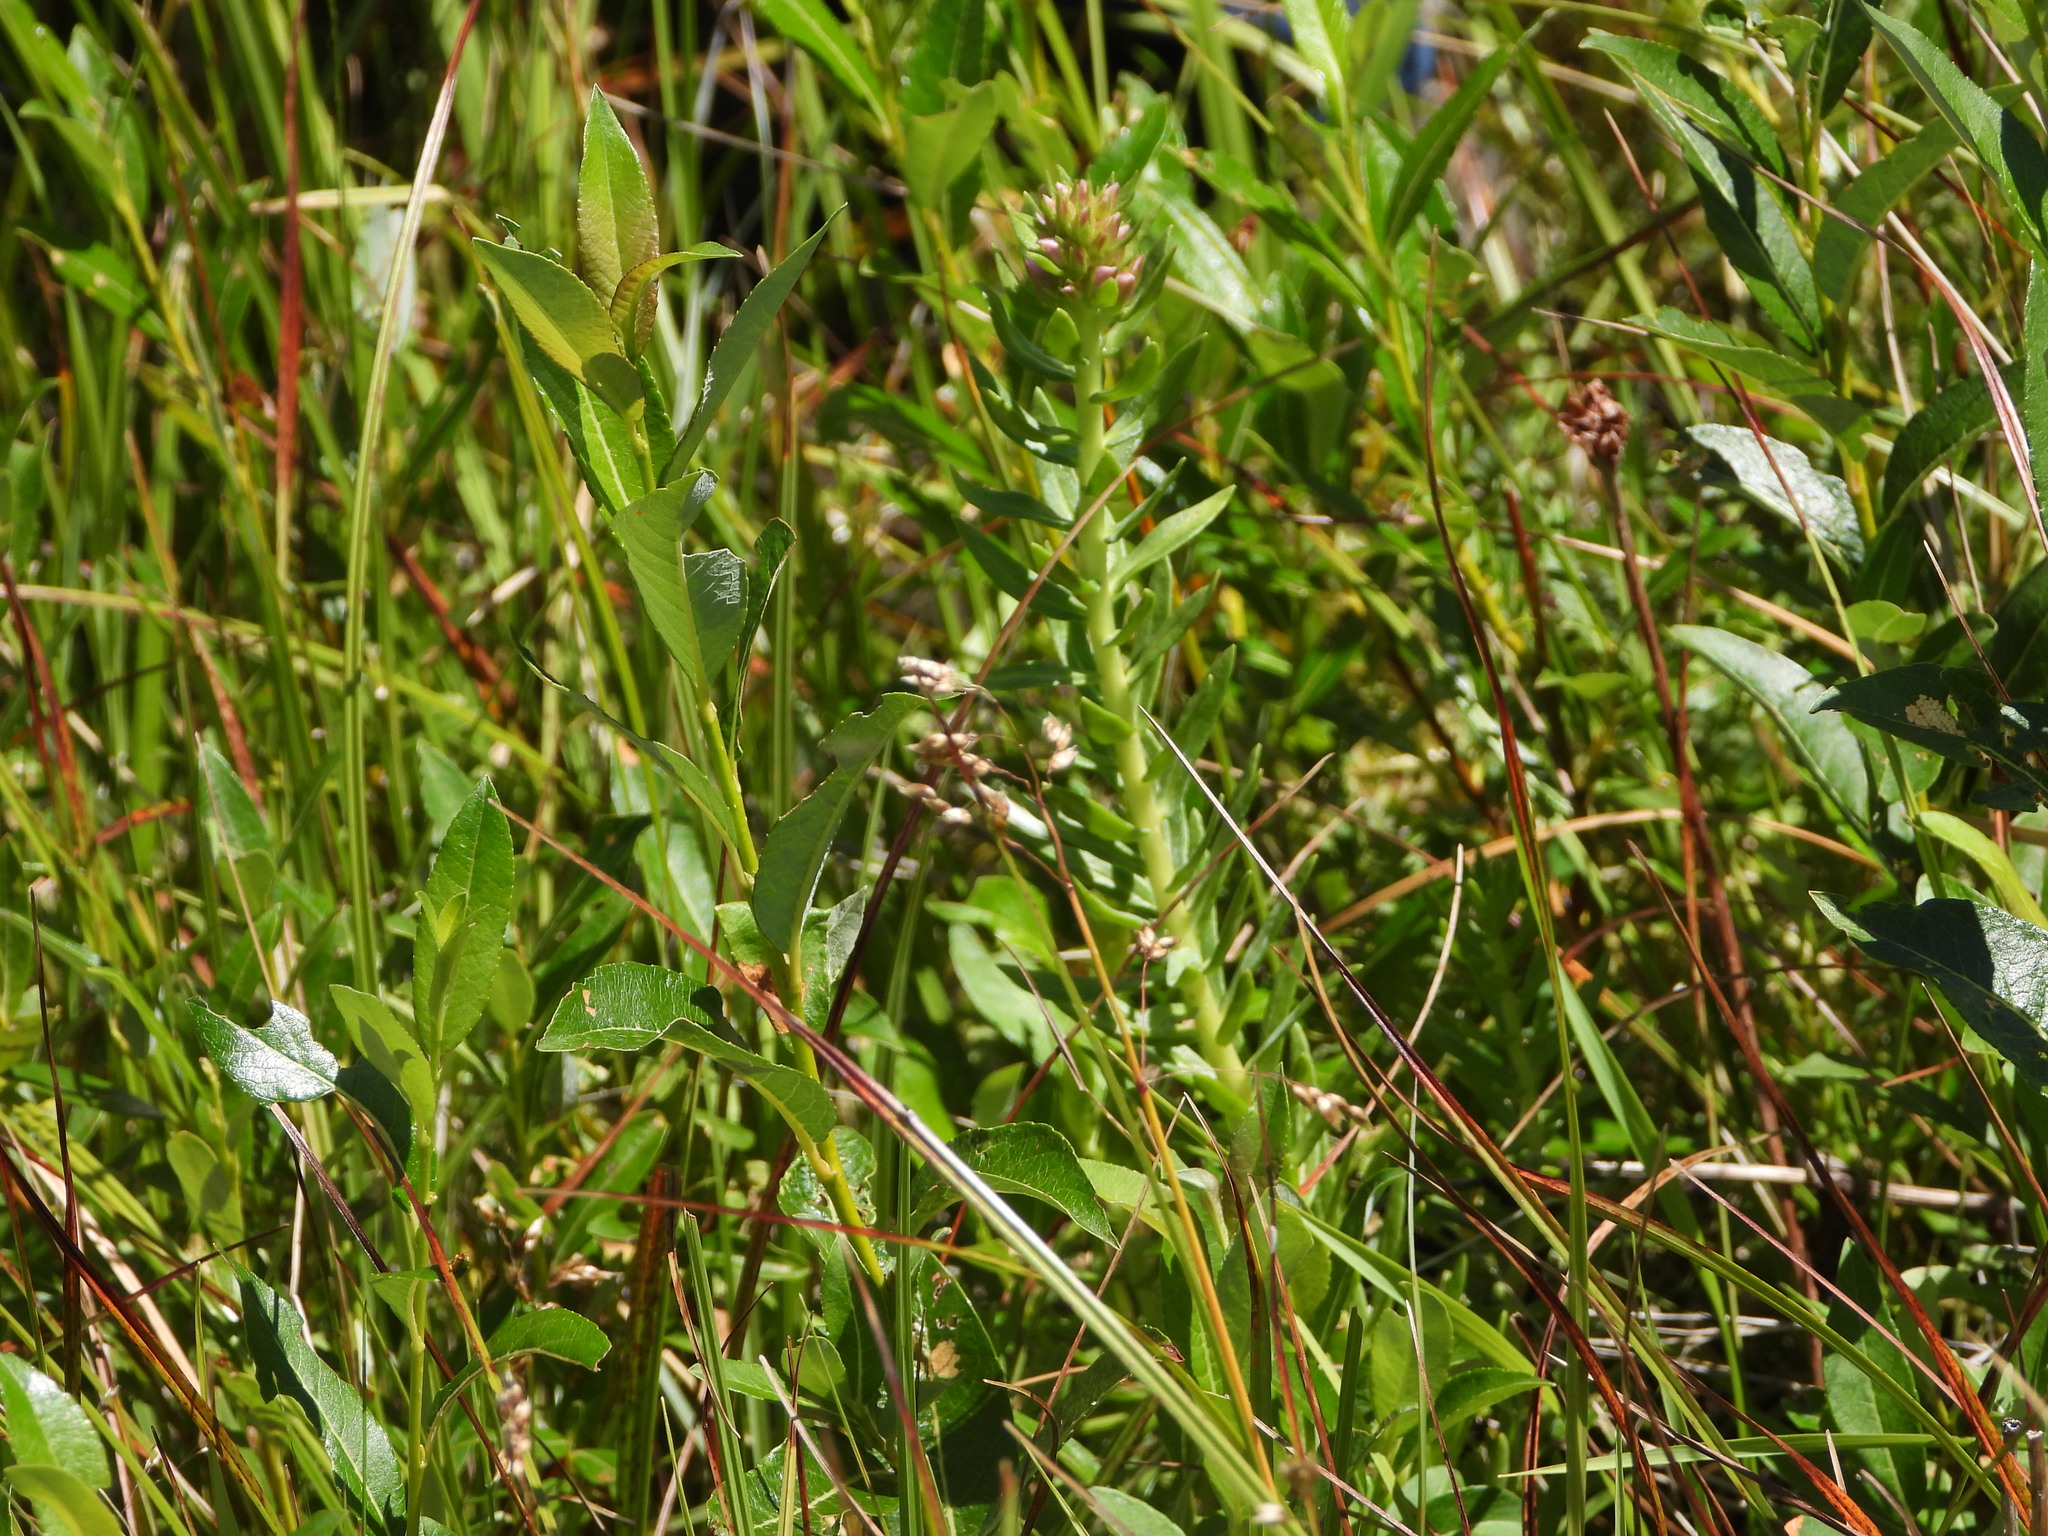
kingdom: Plantae
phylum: Tracheophyta
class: Magnoliopsida
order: Saxifragales
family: Crassulaceae
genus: Rhodiola
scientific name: Rhodiola rhodantha
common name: Red orpine
